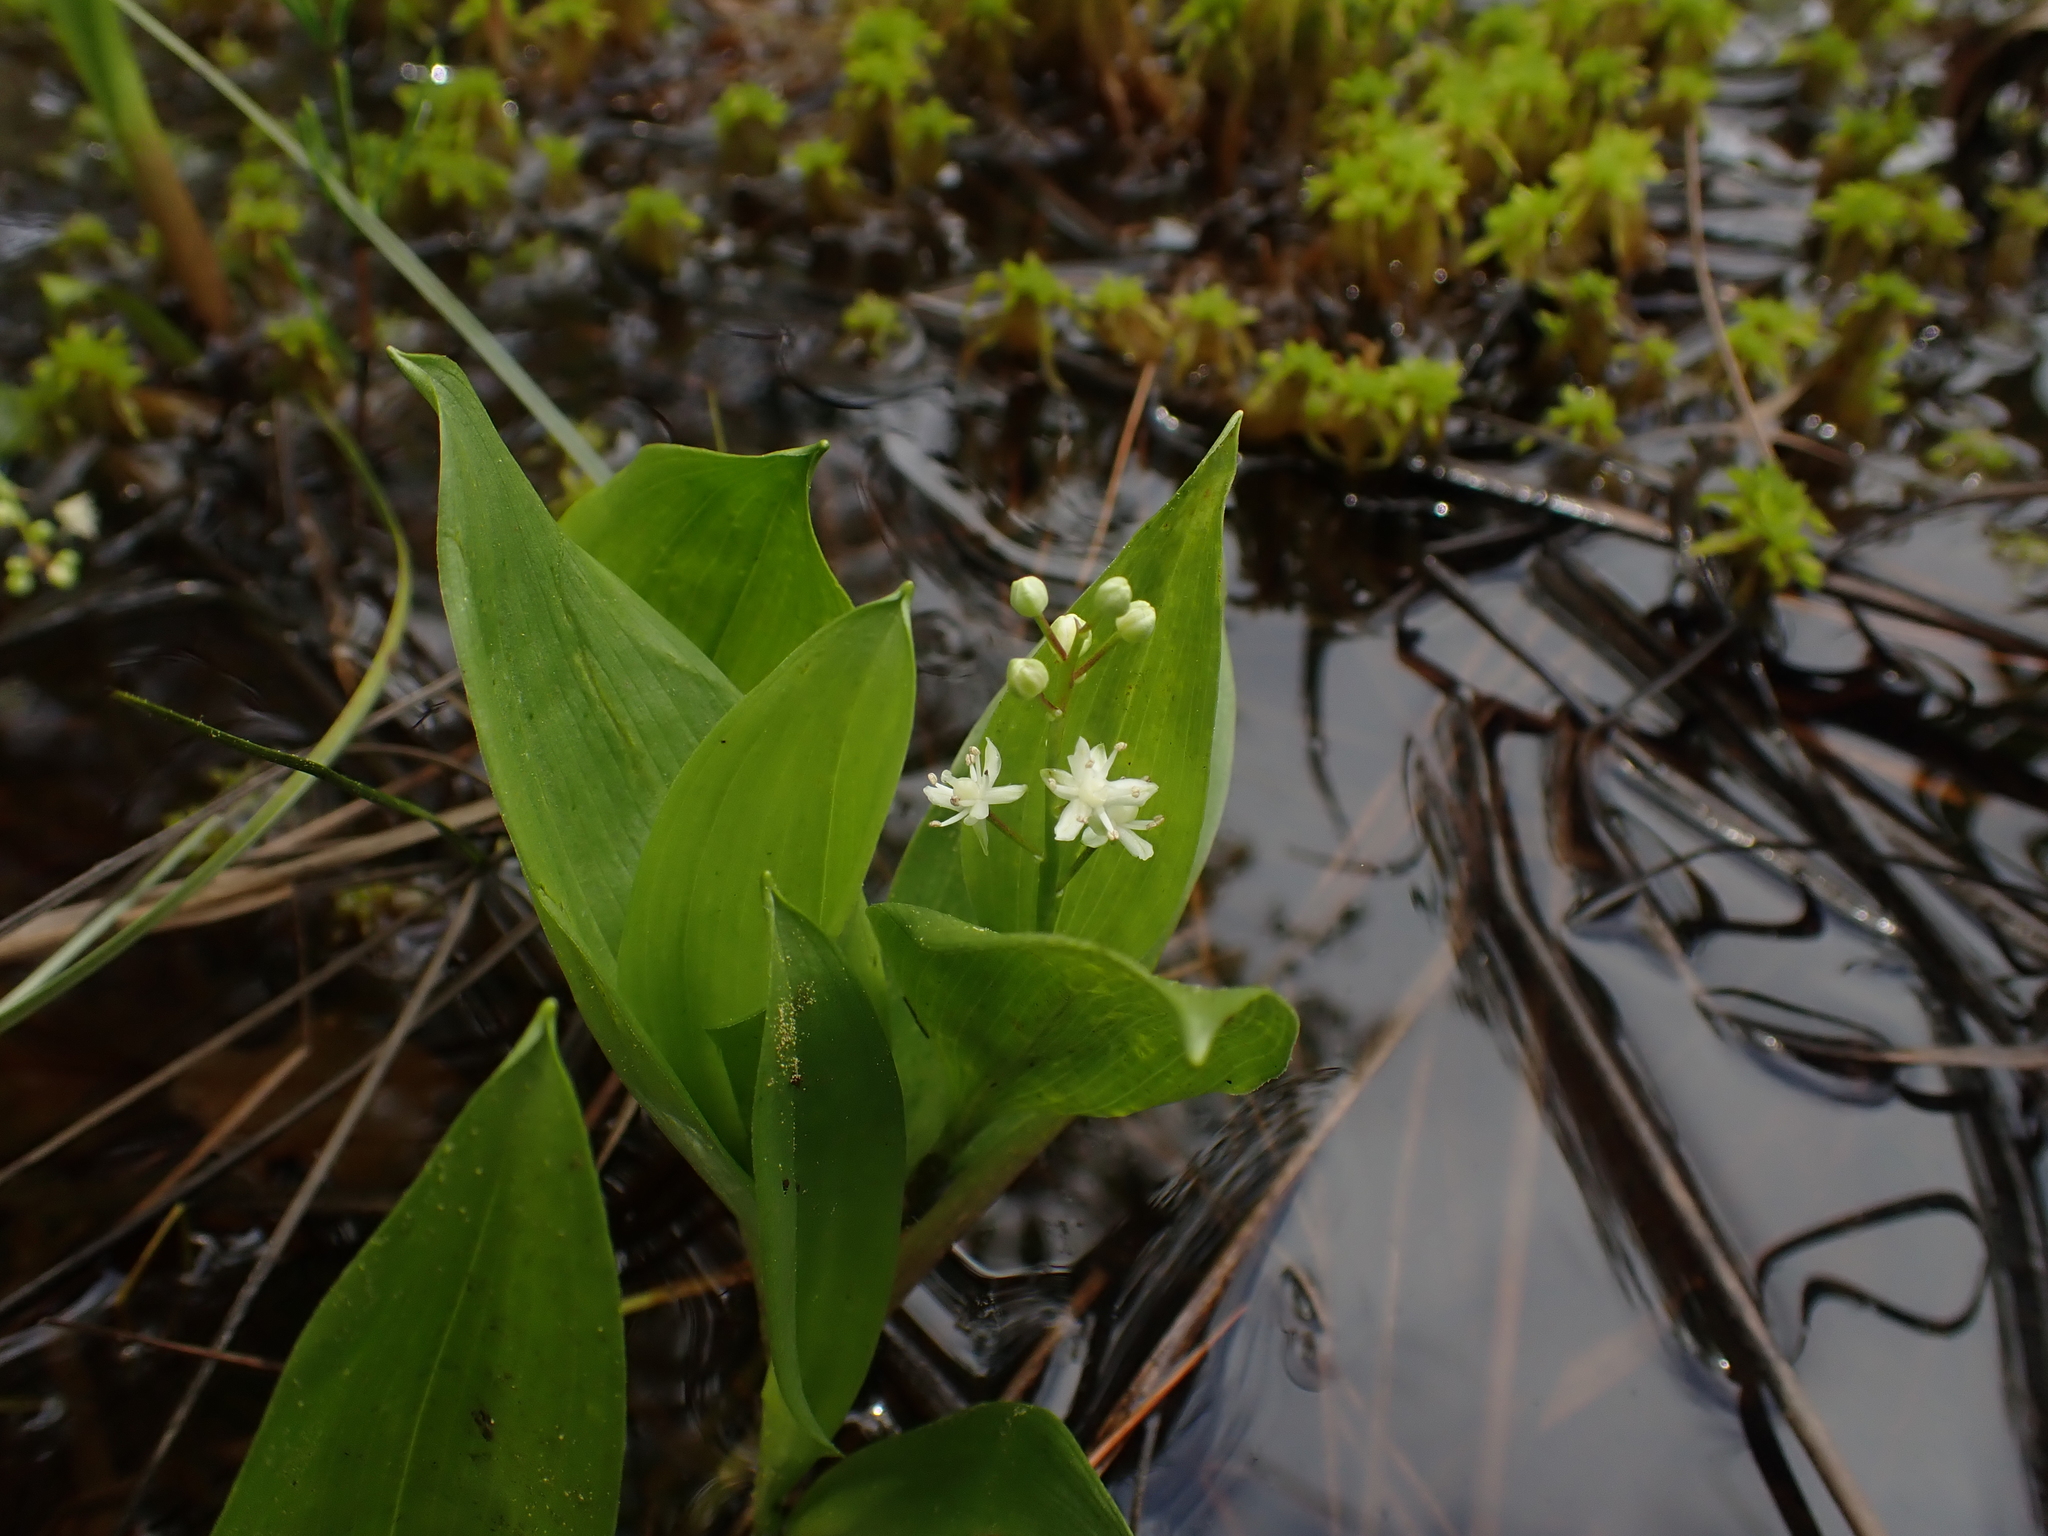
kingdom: Plantae
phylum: Tracheophyta
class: Liliopsida
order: Asparagales
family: Asparagaceae
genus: Maianthemum
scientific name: Maianthemum trifolium
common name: Swamp false solomon's seal
